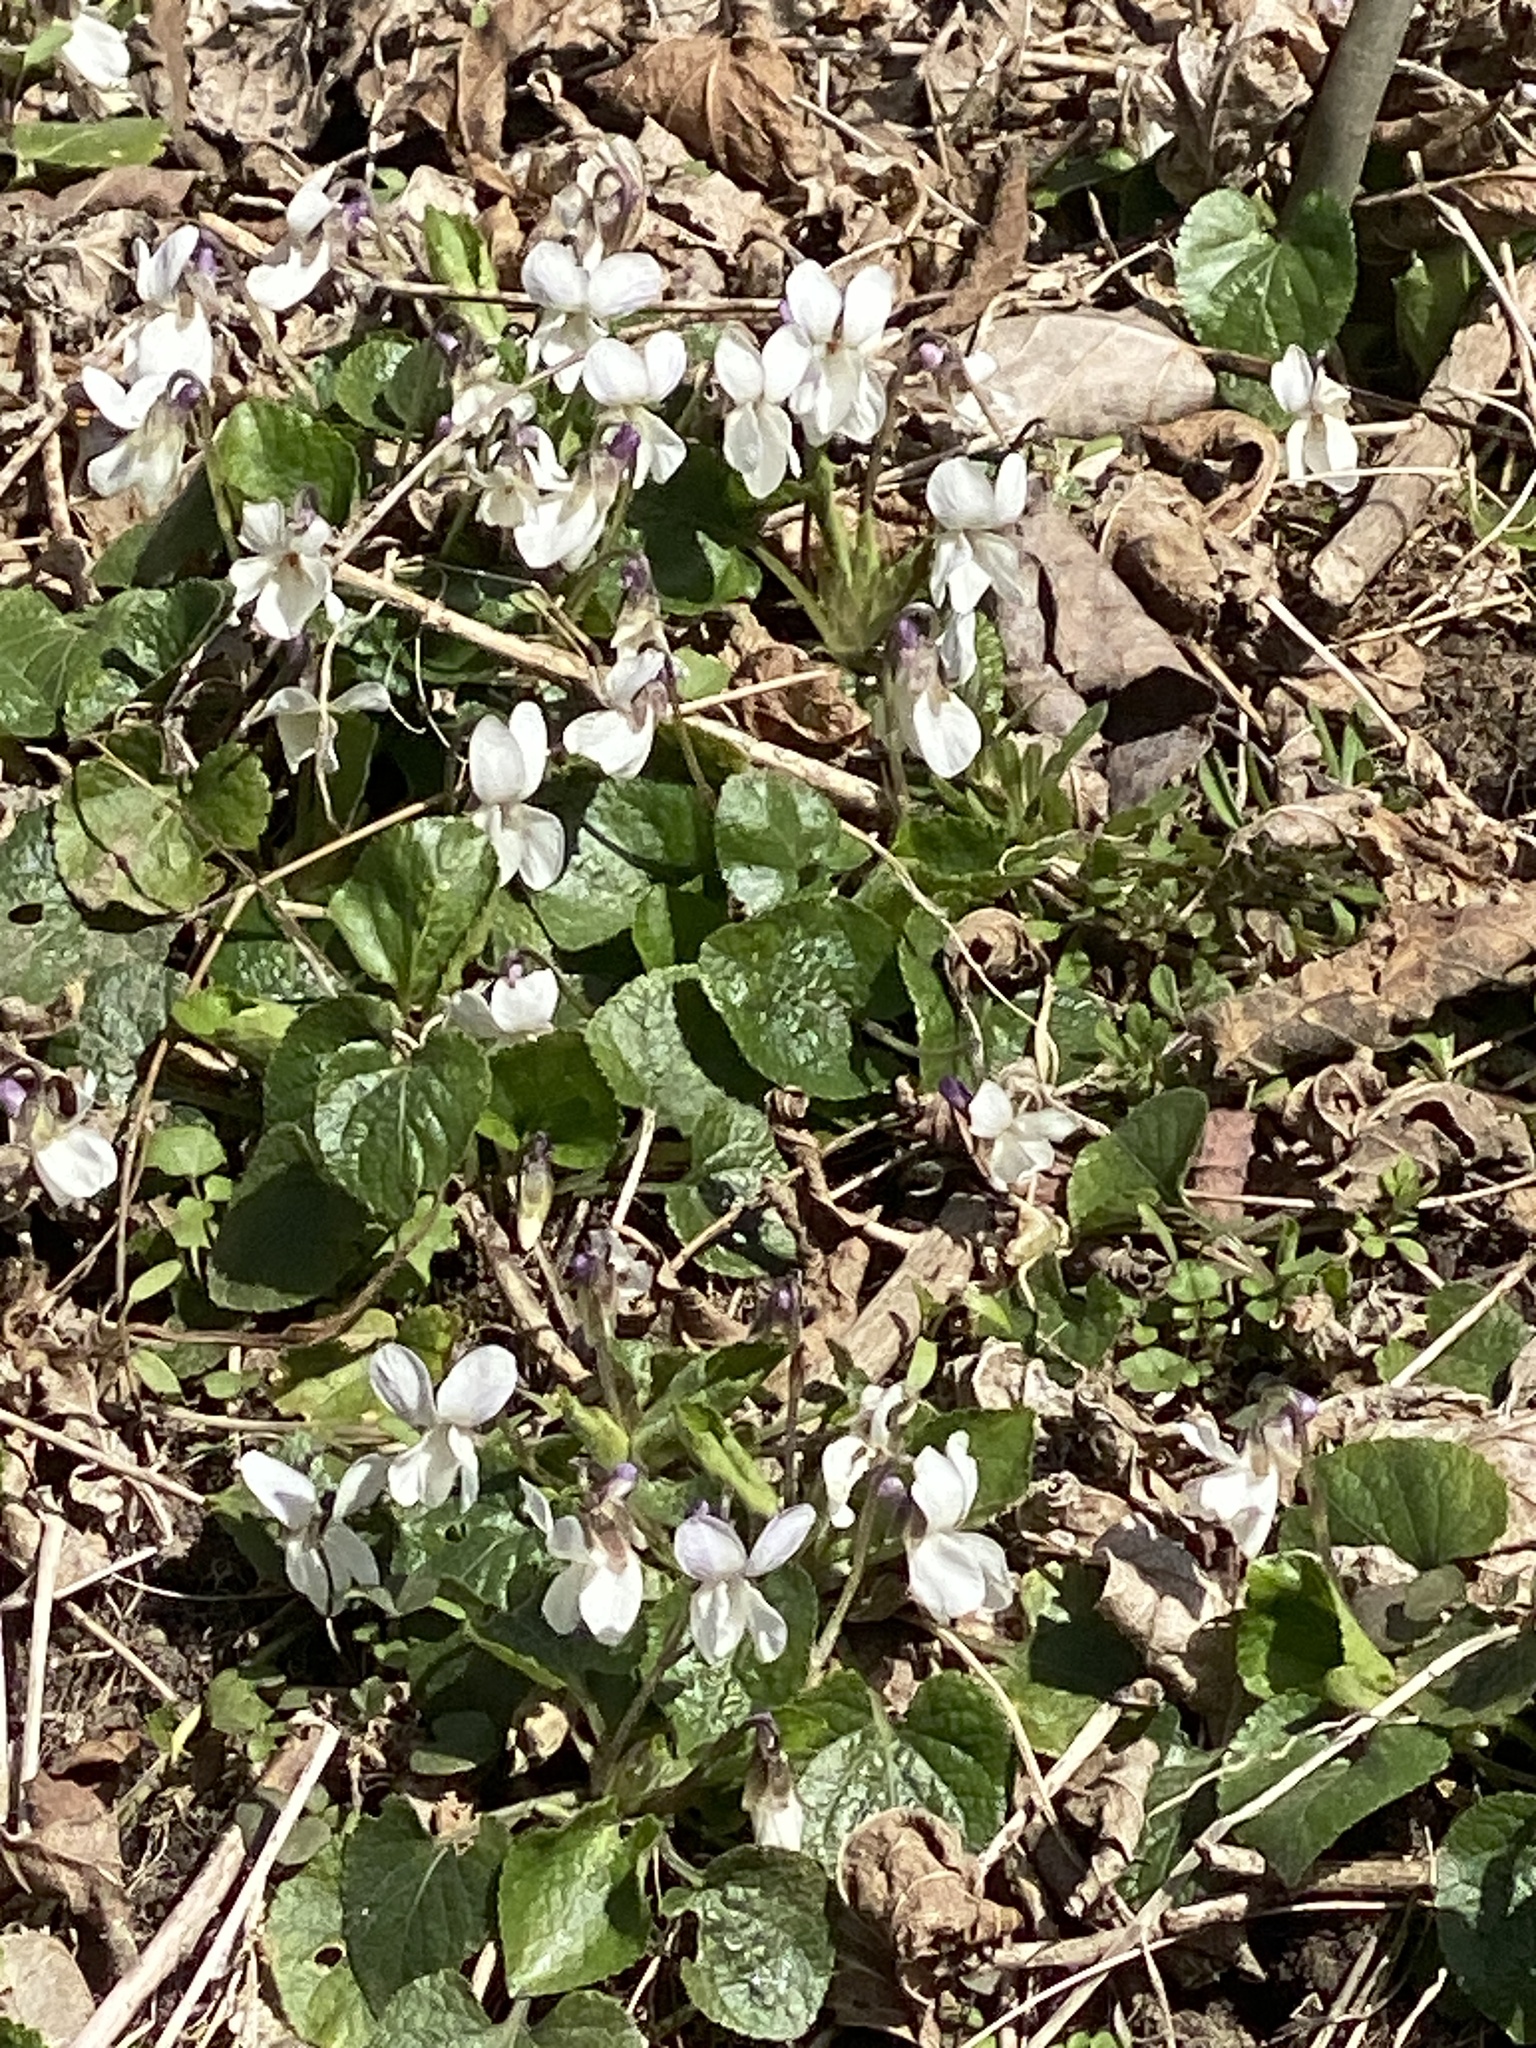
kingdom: Plantae
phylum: Tracheophyta
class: Magnoliopsida
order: Malpighiales
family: Violaceae
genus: Viola
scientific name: Viola odorata
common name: Sweet violet
